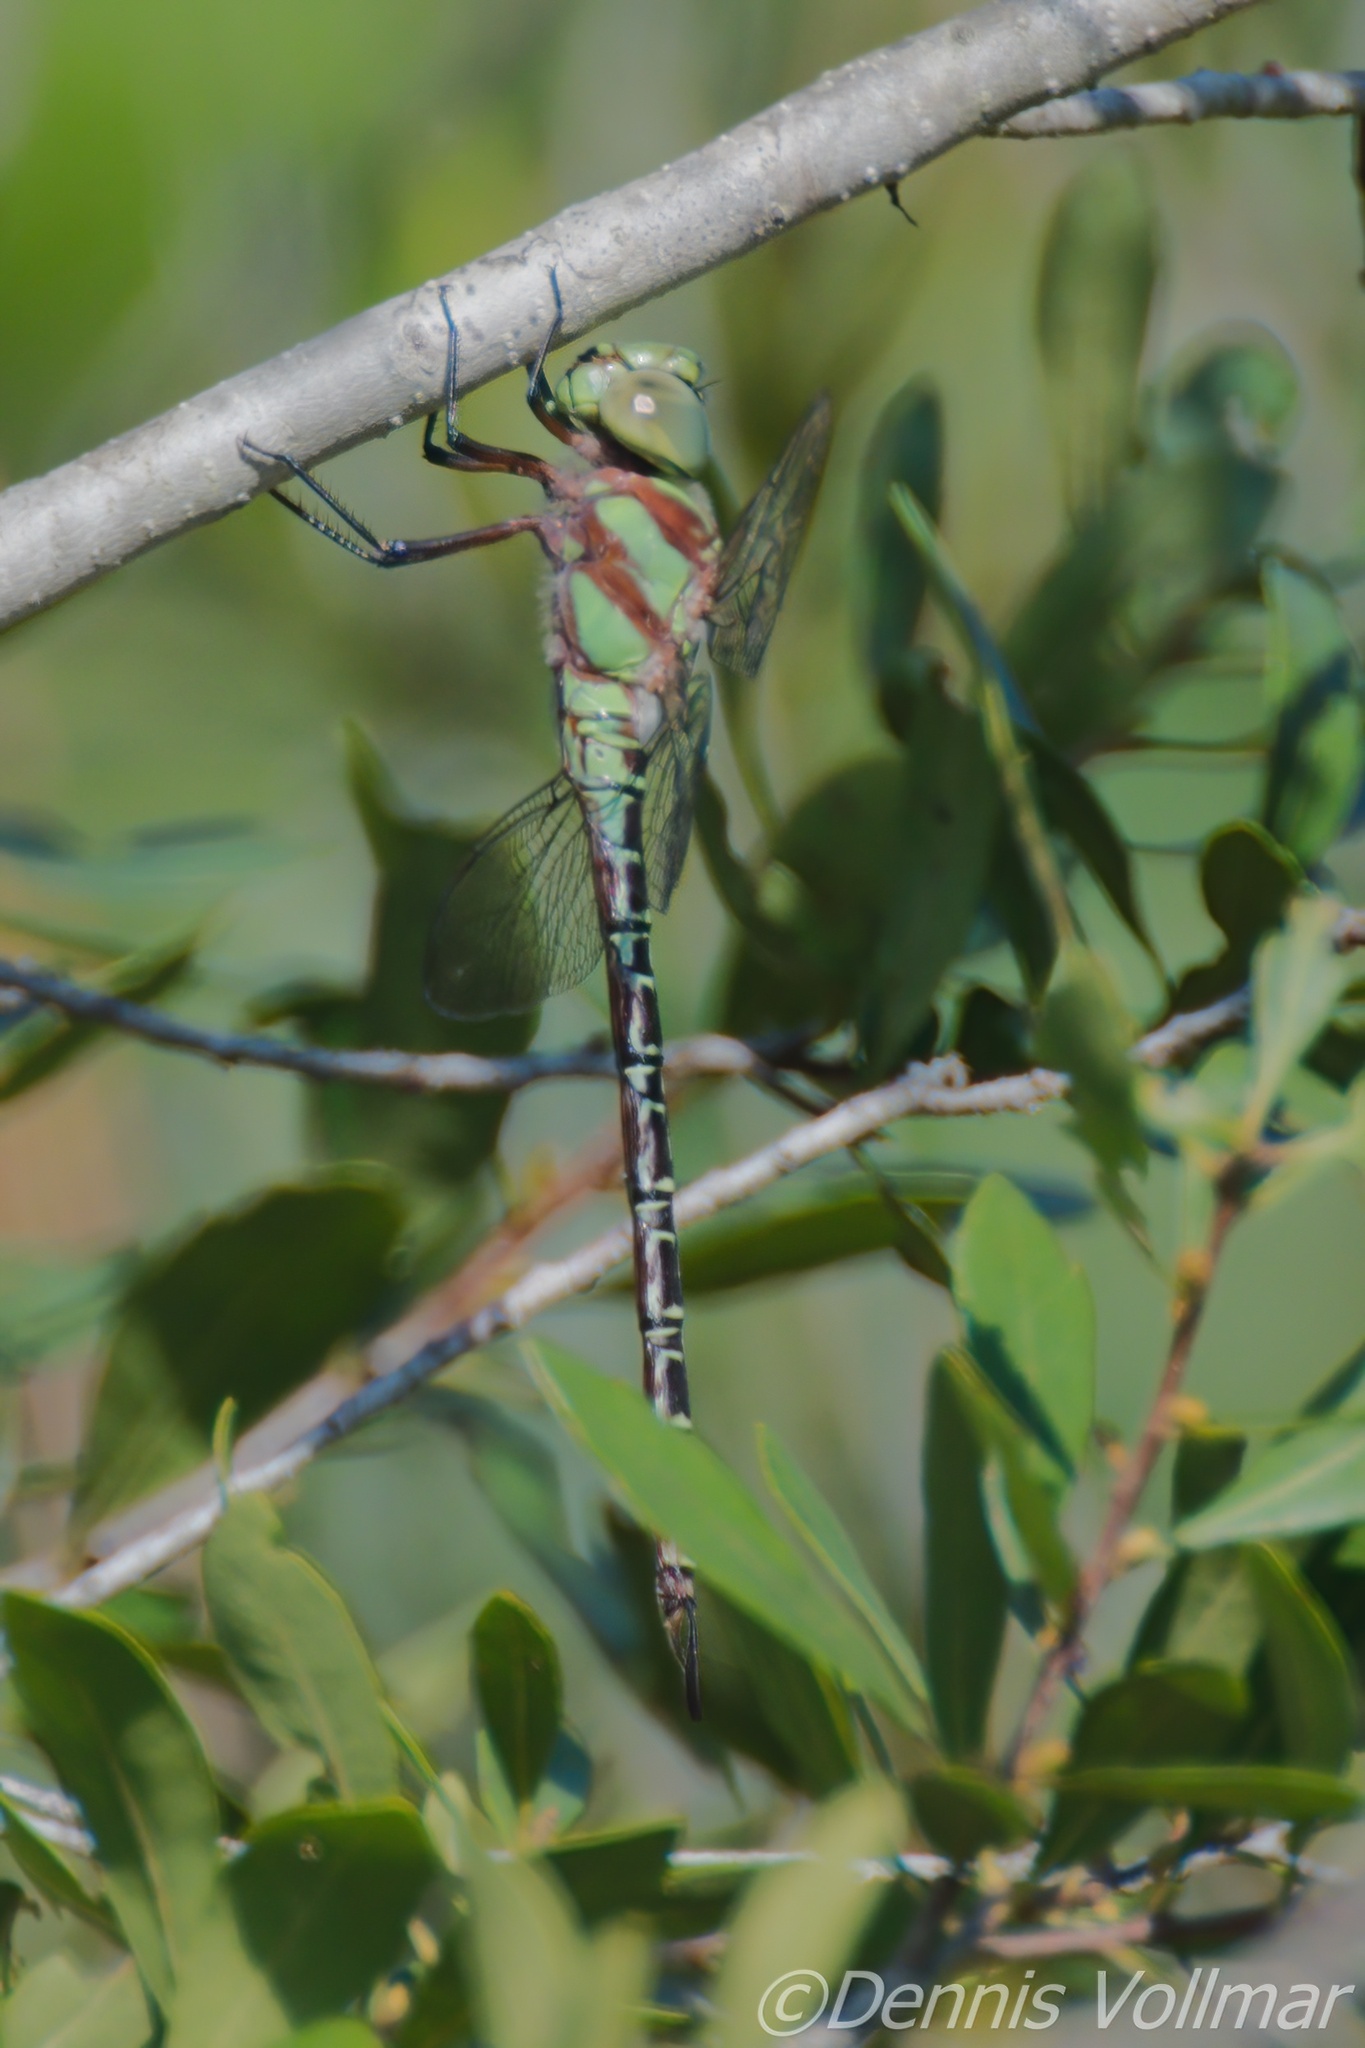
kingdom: Animalia
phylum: Arthropoda
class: Insecta
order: Odonata
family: Aeshnidae
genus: Coryphaeschna
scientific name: Coryphaeschna ingens
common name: Regal darner
